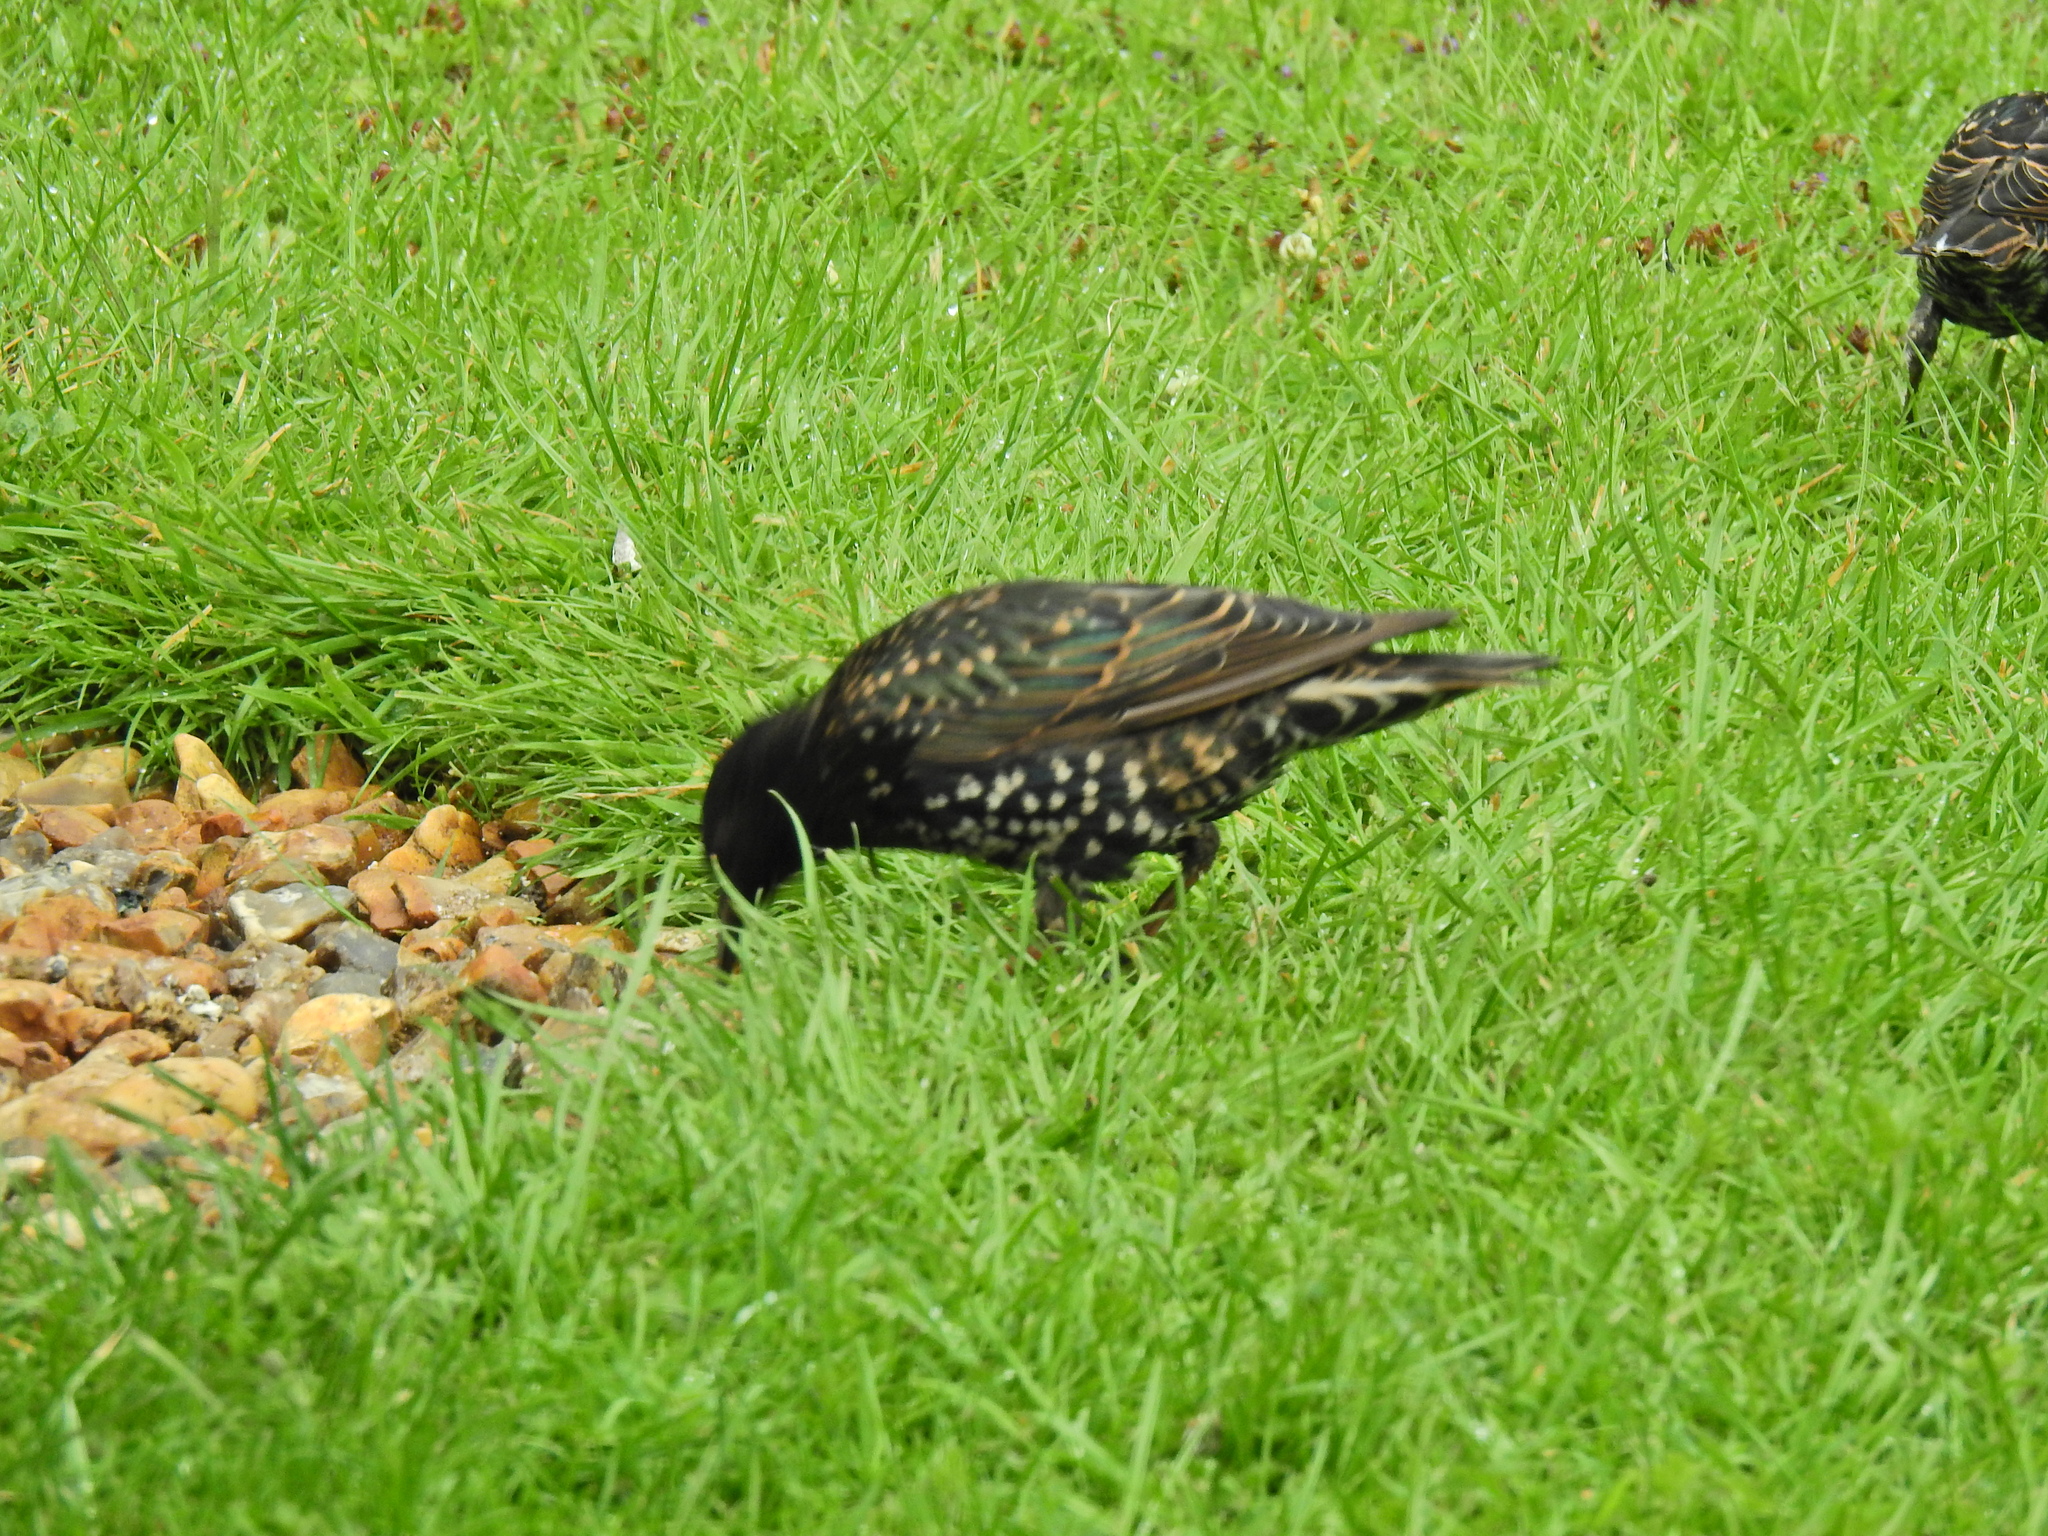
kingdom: Animalia
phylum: Chordata
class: Aves
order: Passeriformes
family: Sturnidae
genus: Sturnus
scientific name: Sturnus vulgaris
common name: Common starling
